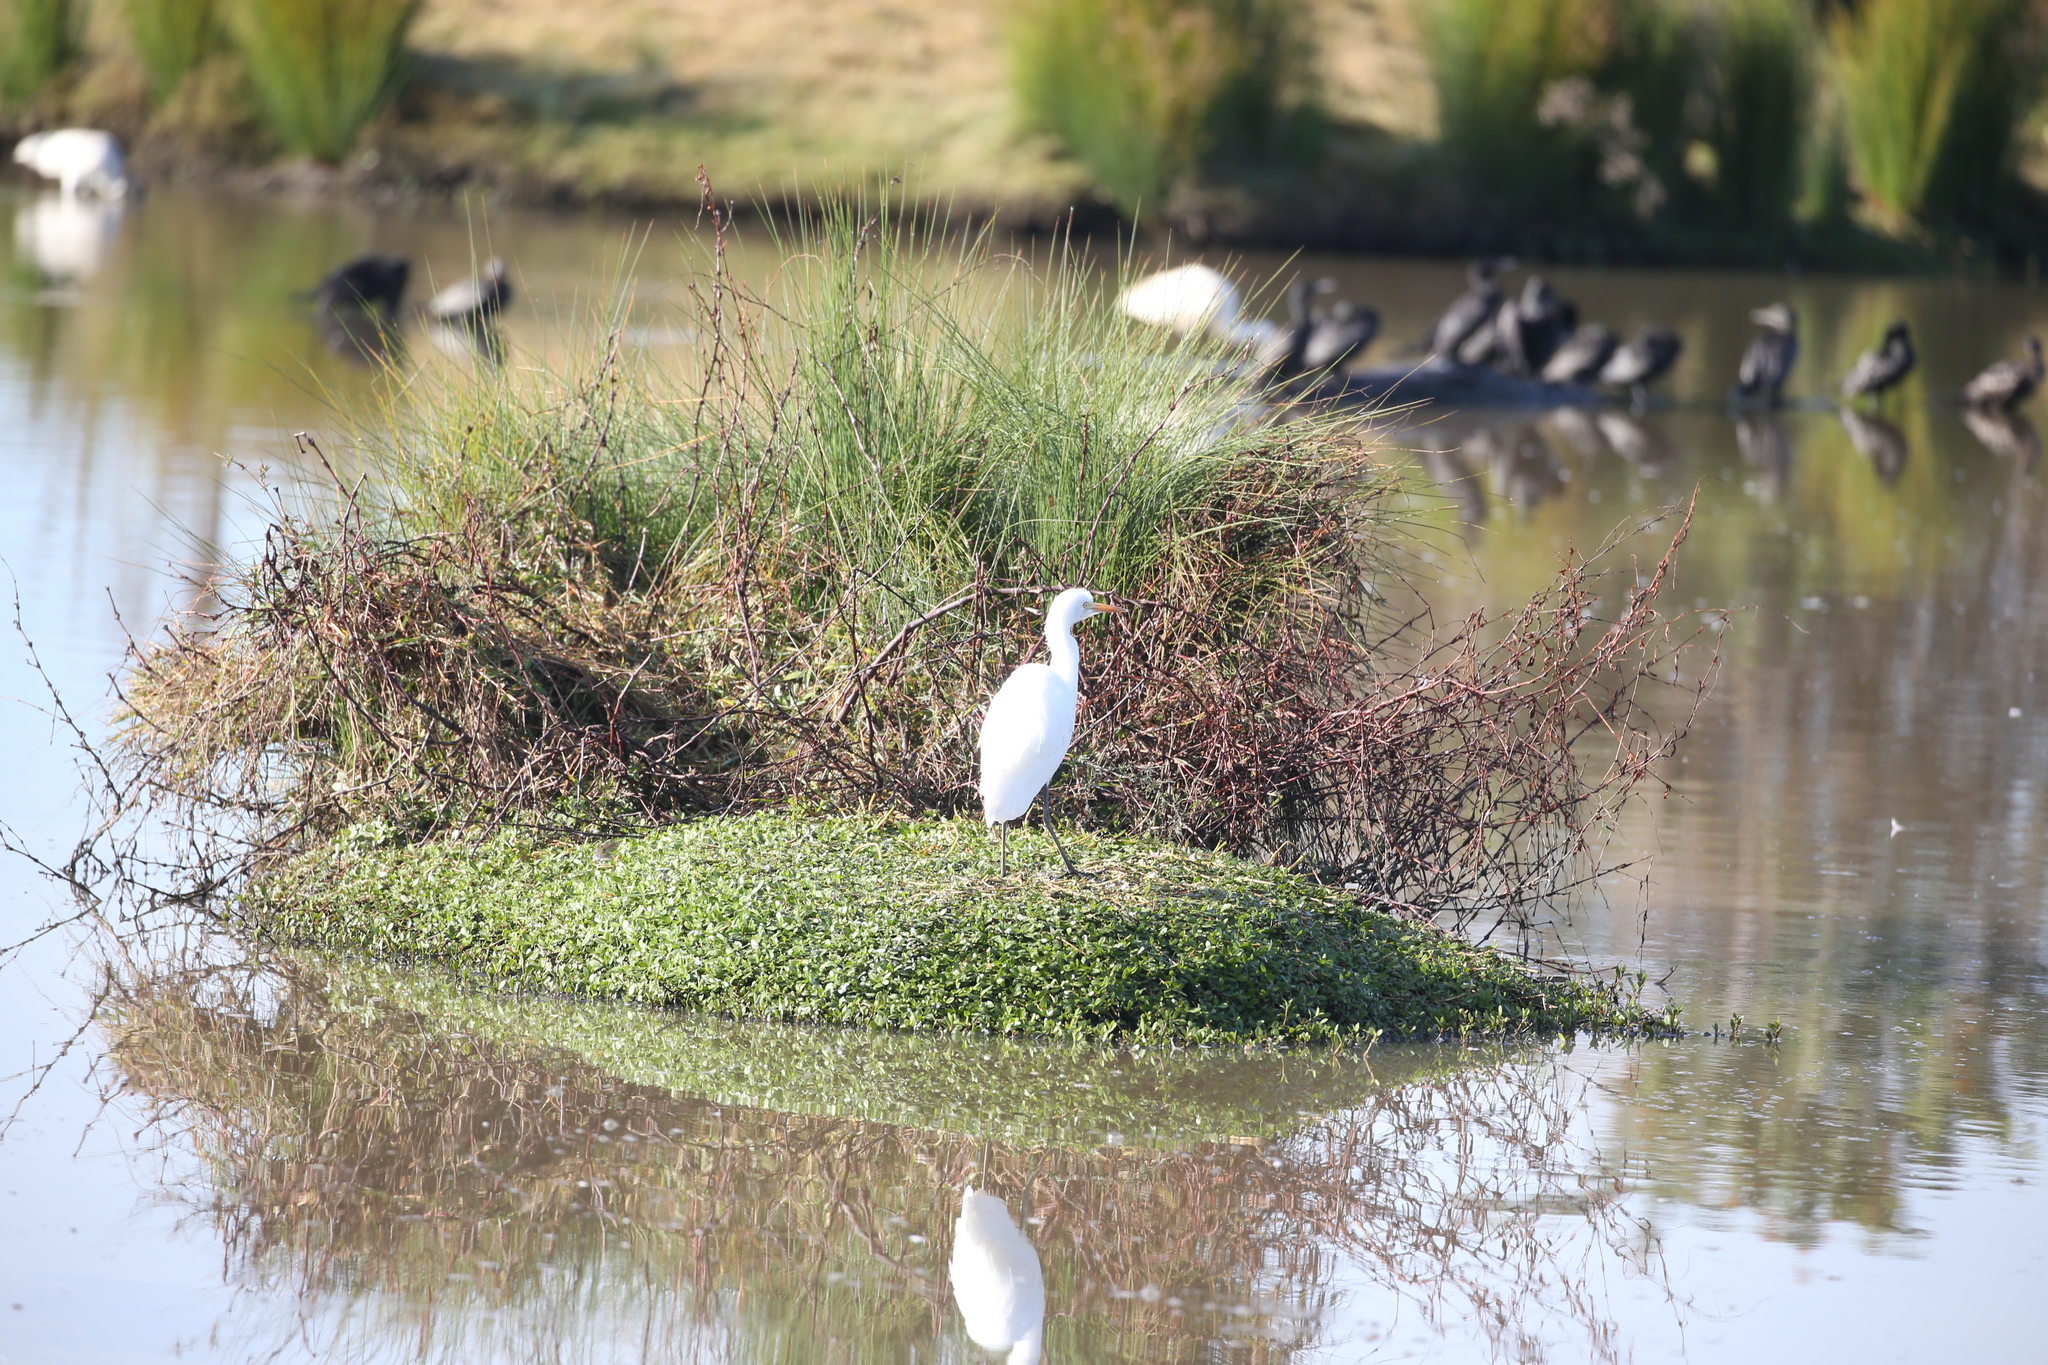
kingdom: Animalia
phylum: Chordata
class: Aves
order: Pelecaniformes
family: Ardeidae
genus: Bubulcus
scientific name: Bubulcus coromandus
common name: Eastern cattle egret
